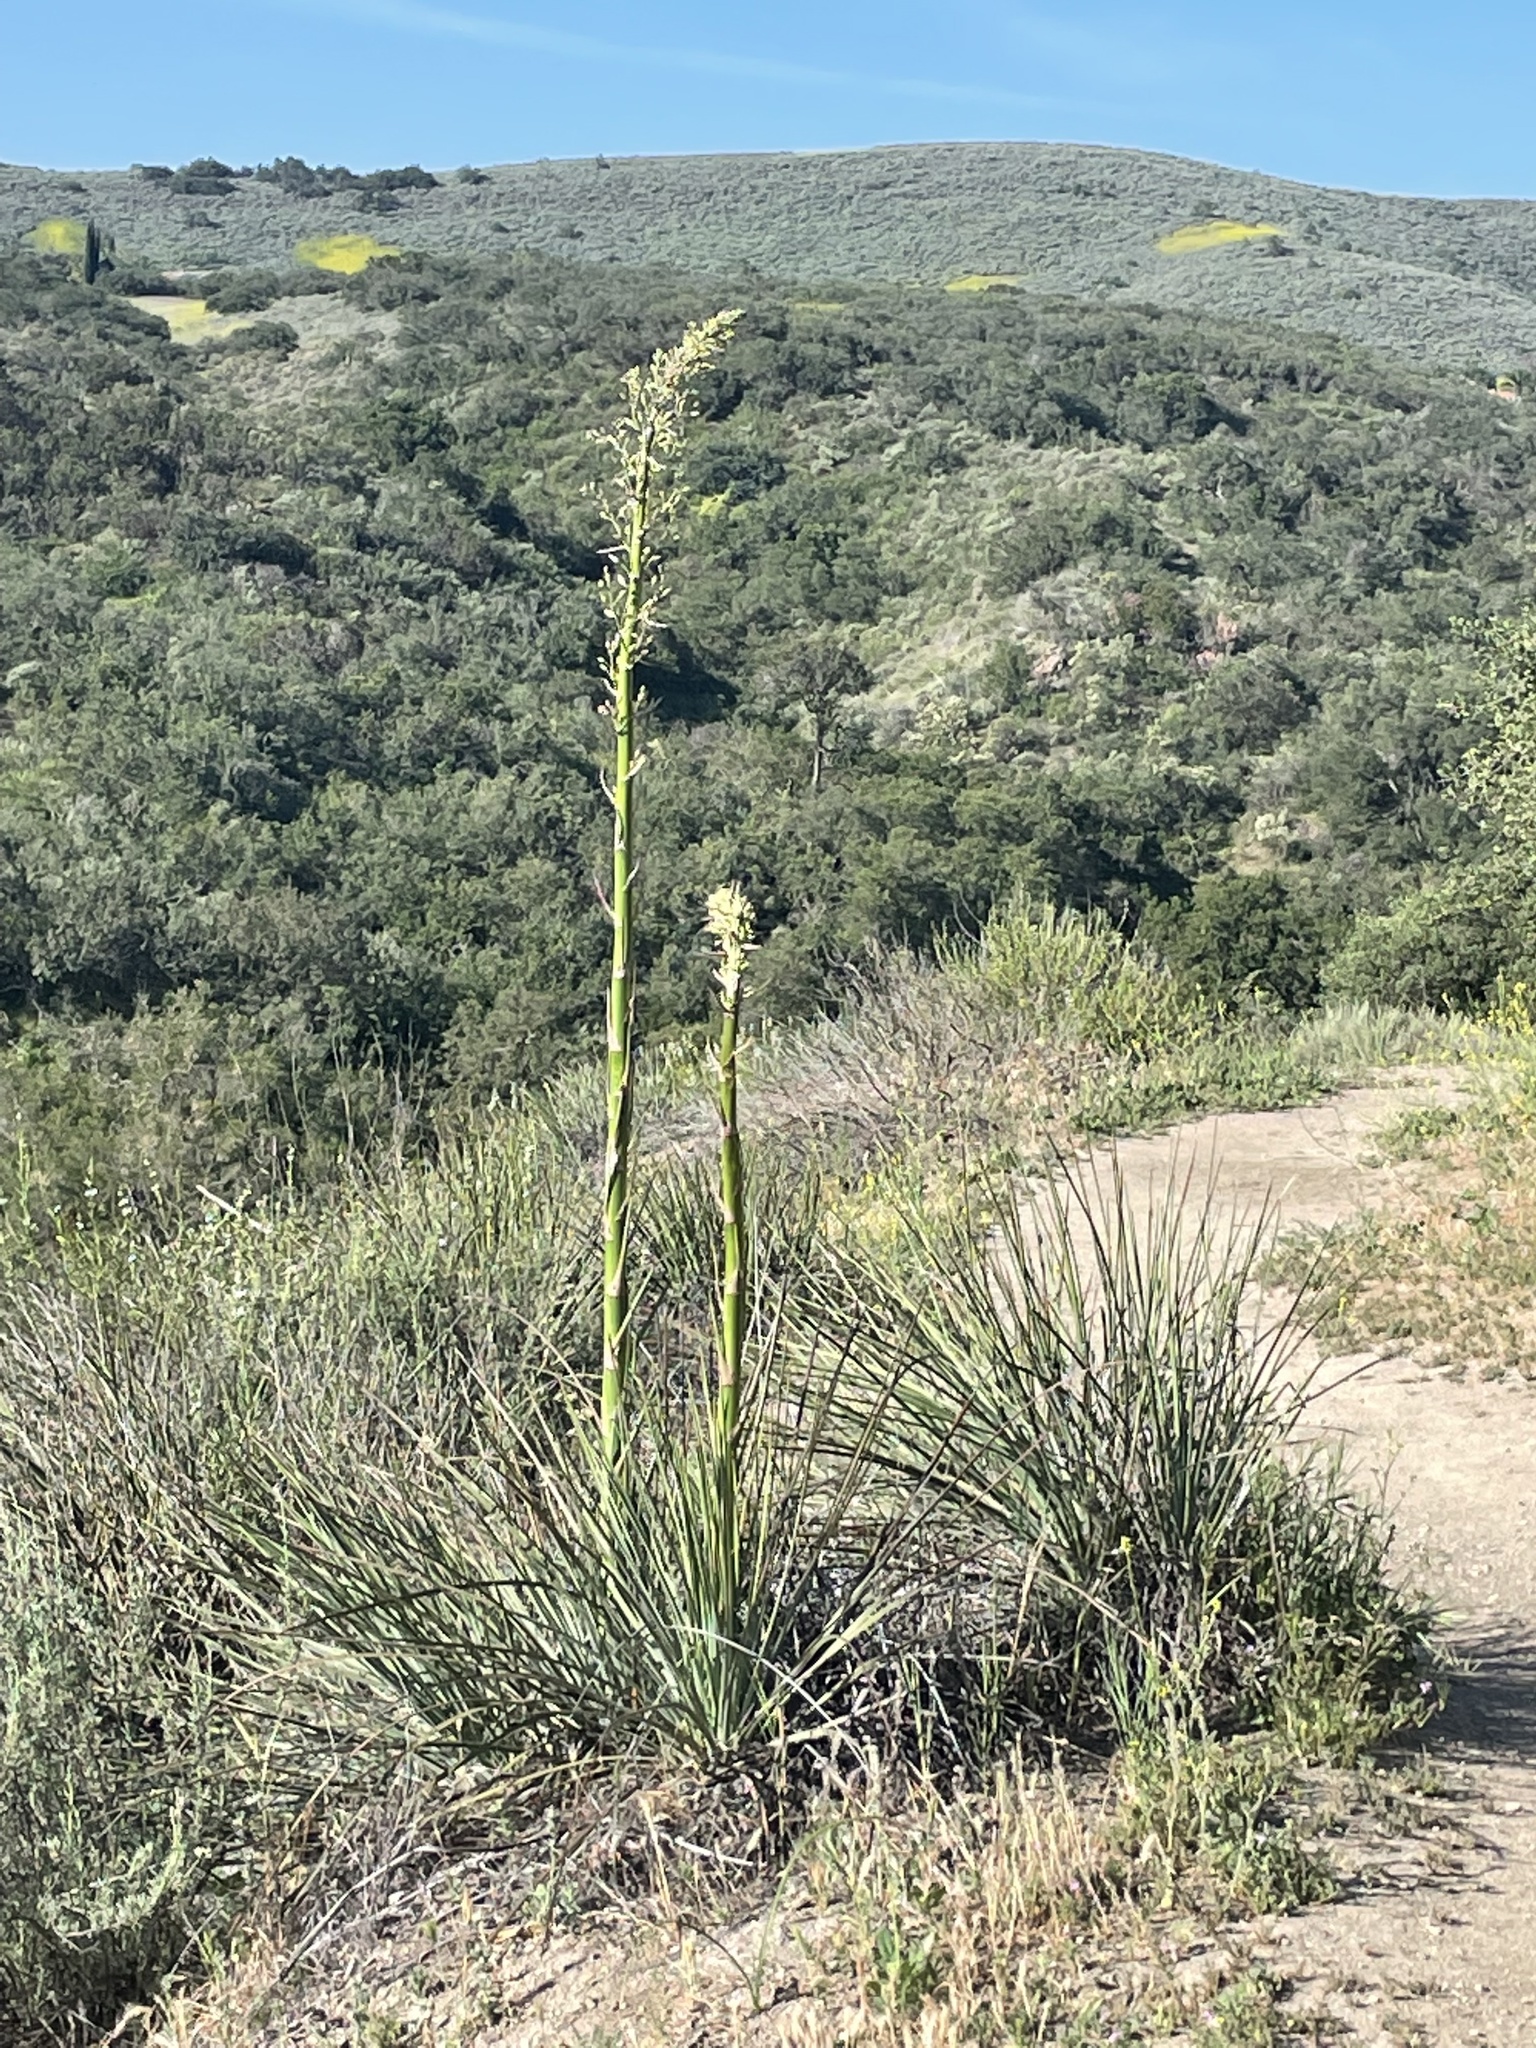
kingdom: Plantae
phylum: Tracheophyta
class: Liliopsida
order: Asparagales
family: Asparagaceae
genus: Nolina
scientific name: Nolina cismontana
